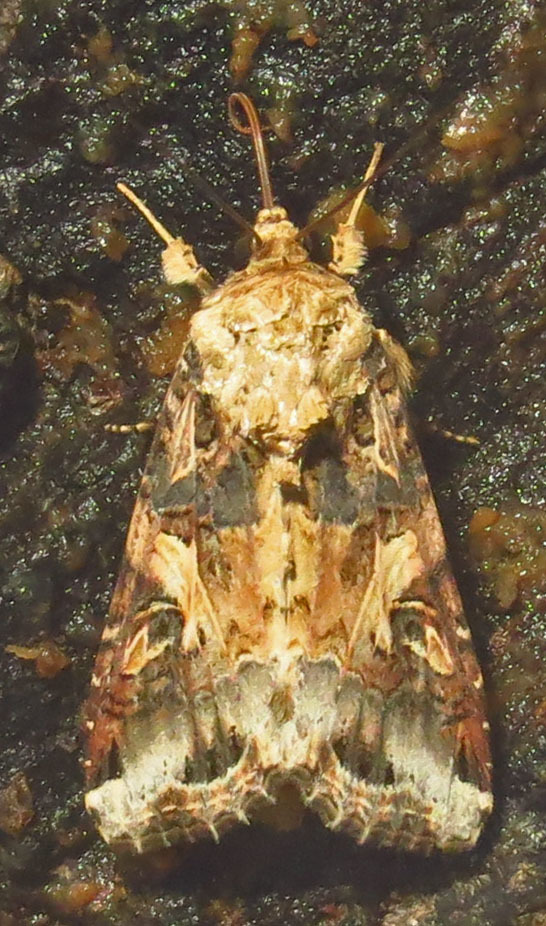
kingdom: Animalia
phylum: Arthropoda
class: Insecta
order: Lepidoptera
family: Noctuidae
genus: Spodoptera
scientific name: Spodoptera ornithogalli
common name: Yellow-striped armyworm
